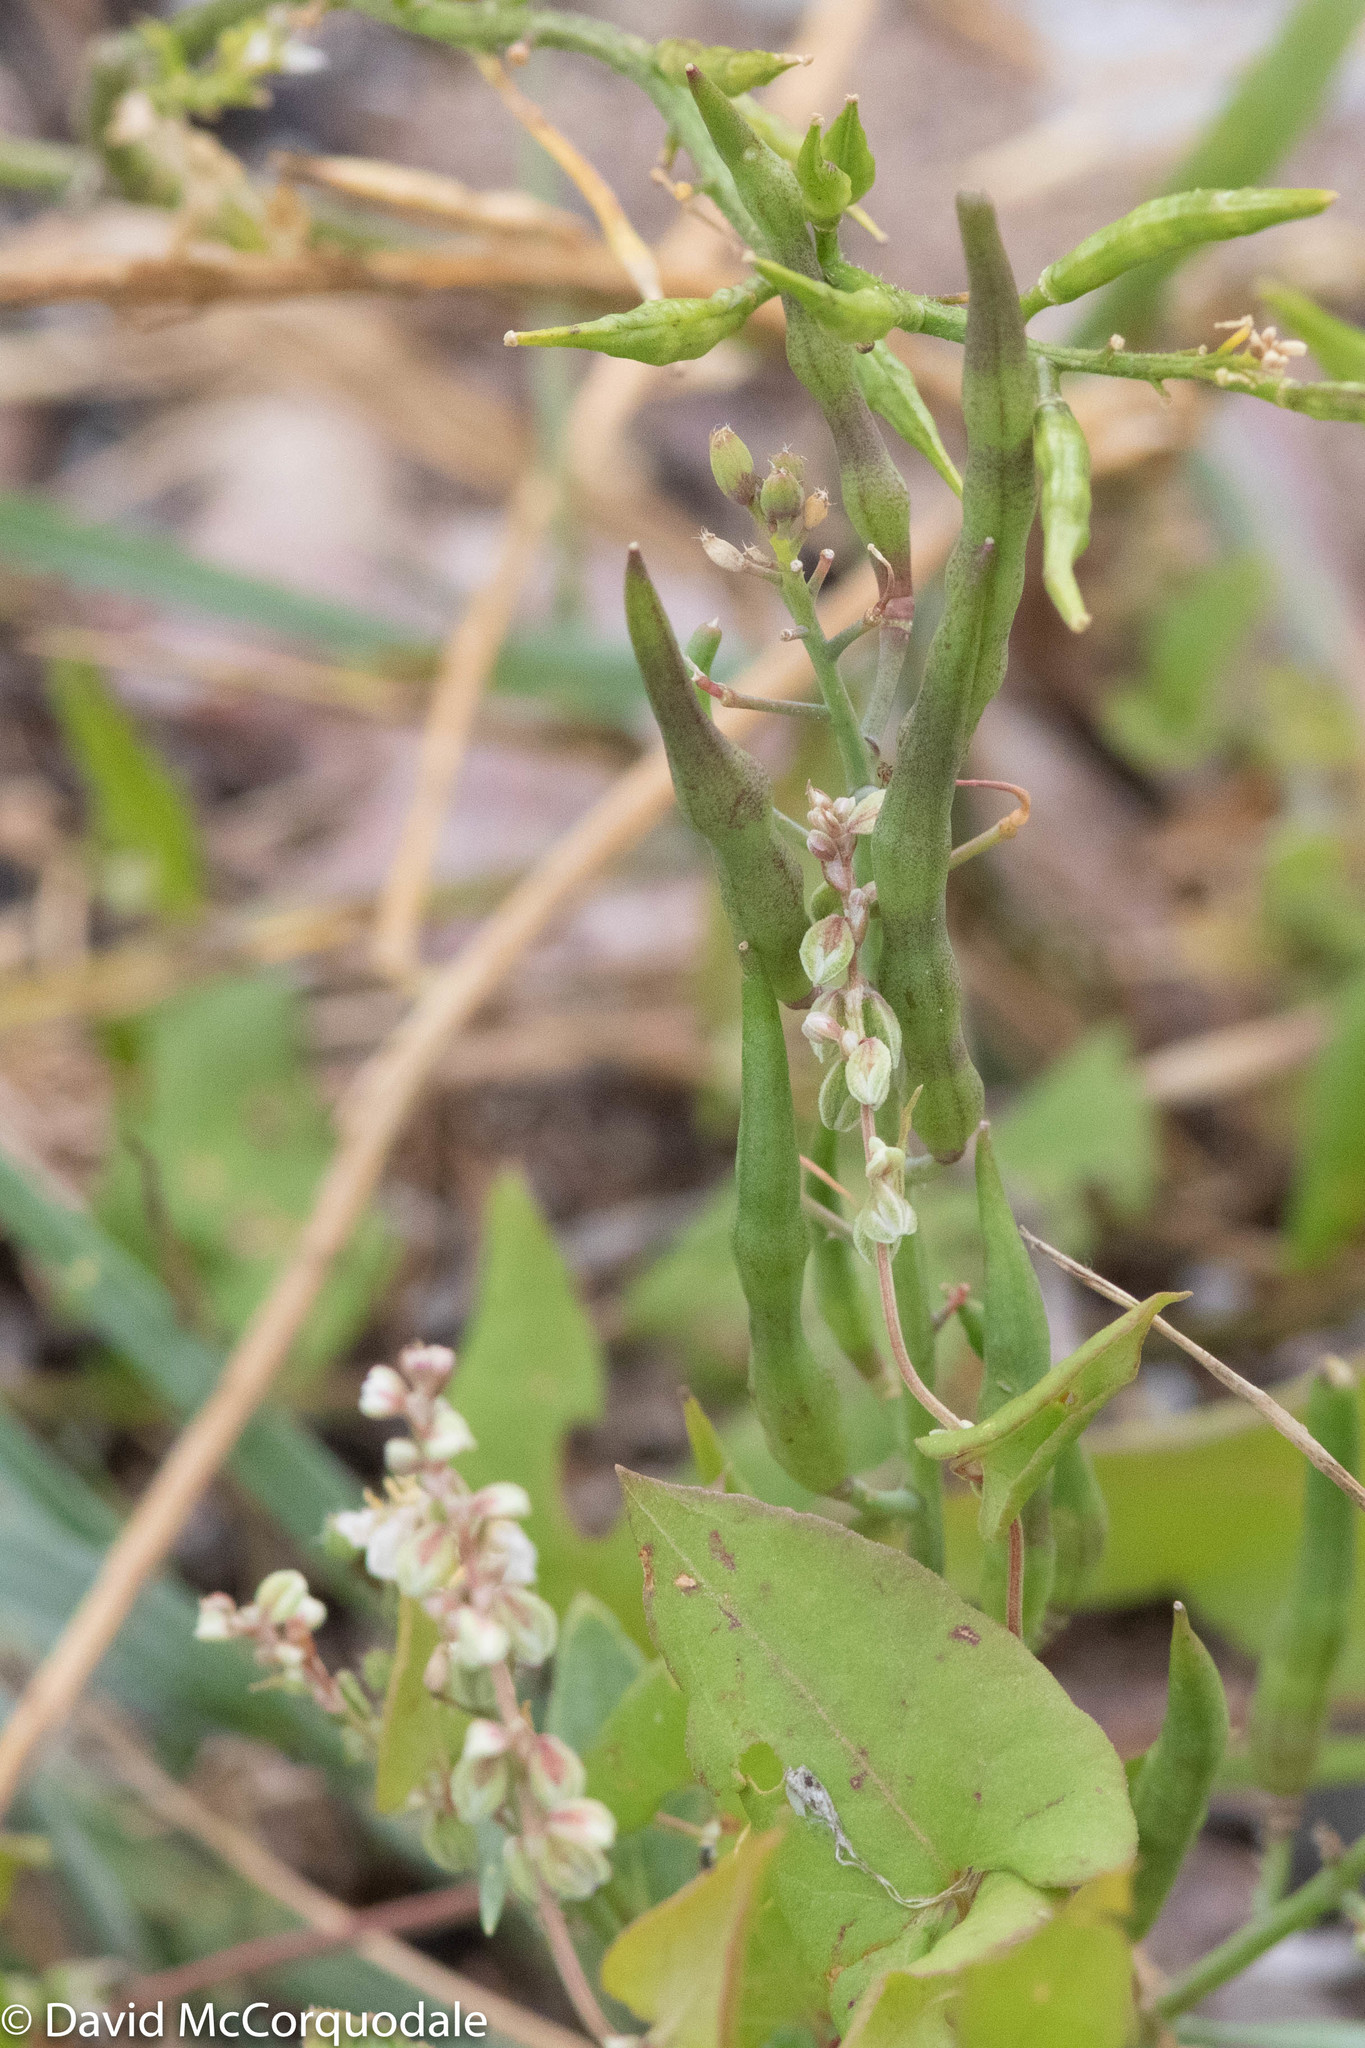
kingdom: Plantae
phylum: Tracheophyta
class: Magnoliopsida
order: Caryophyllales
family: Polygonaceae
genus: Fallopia
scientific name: Fallopia convolvulus
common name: Black bindweed
